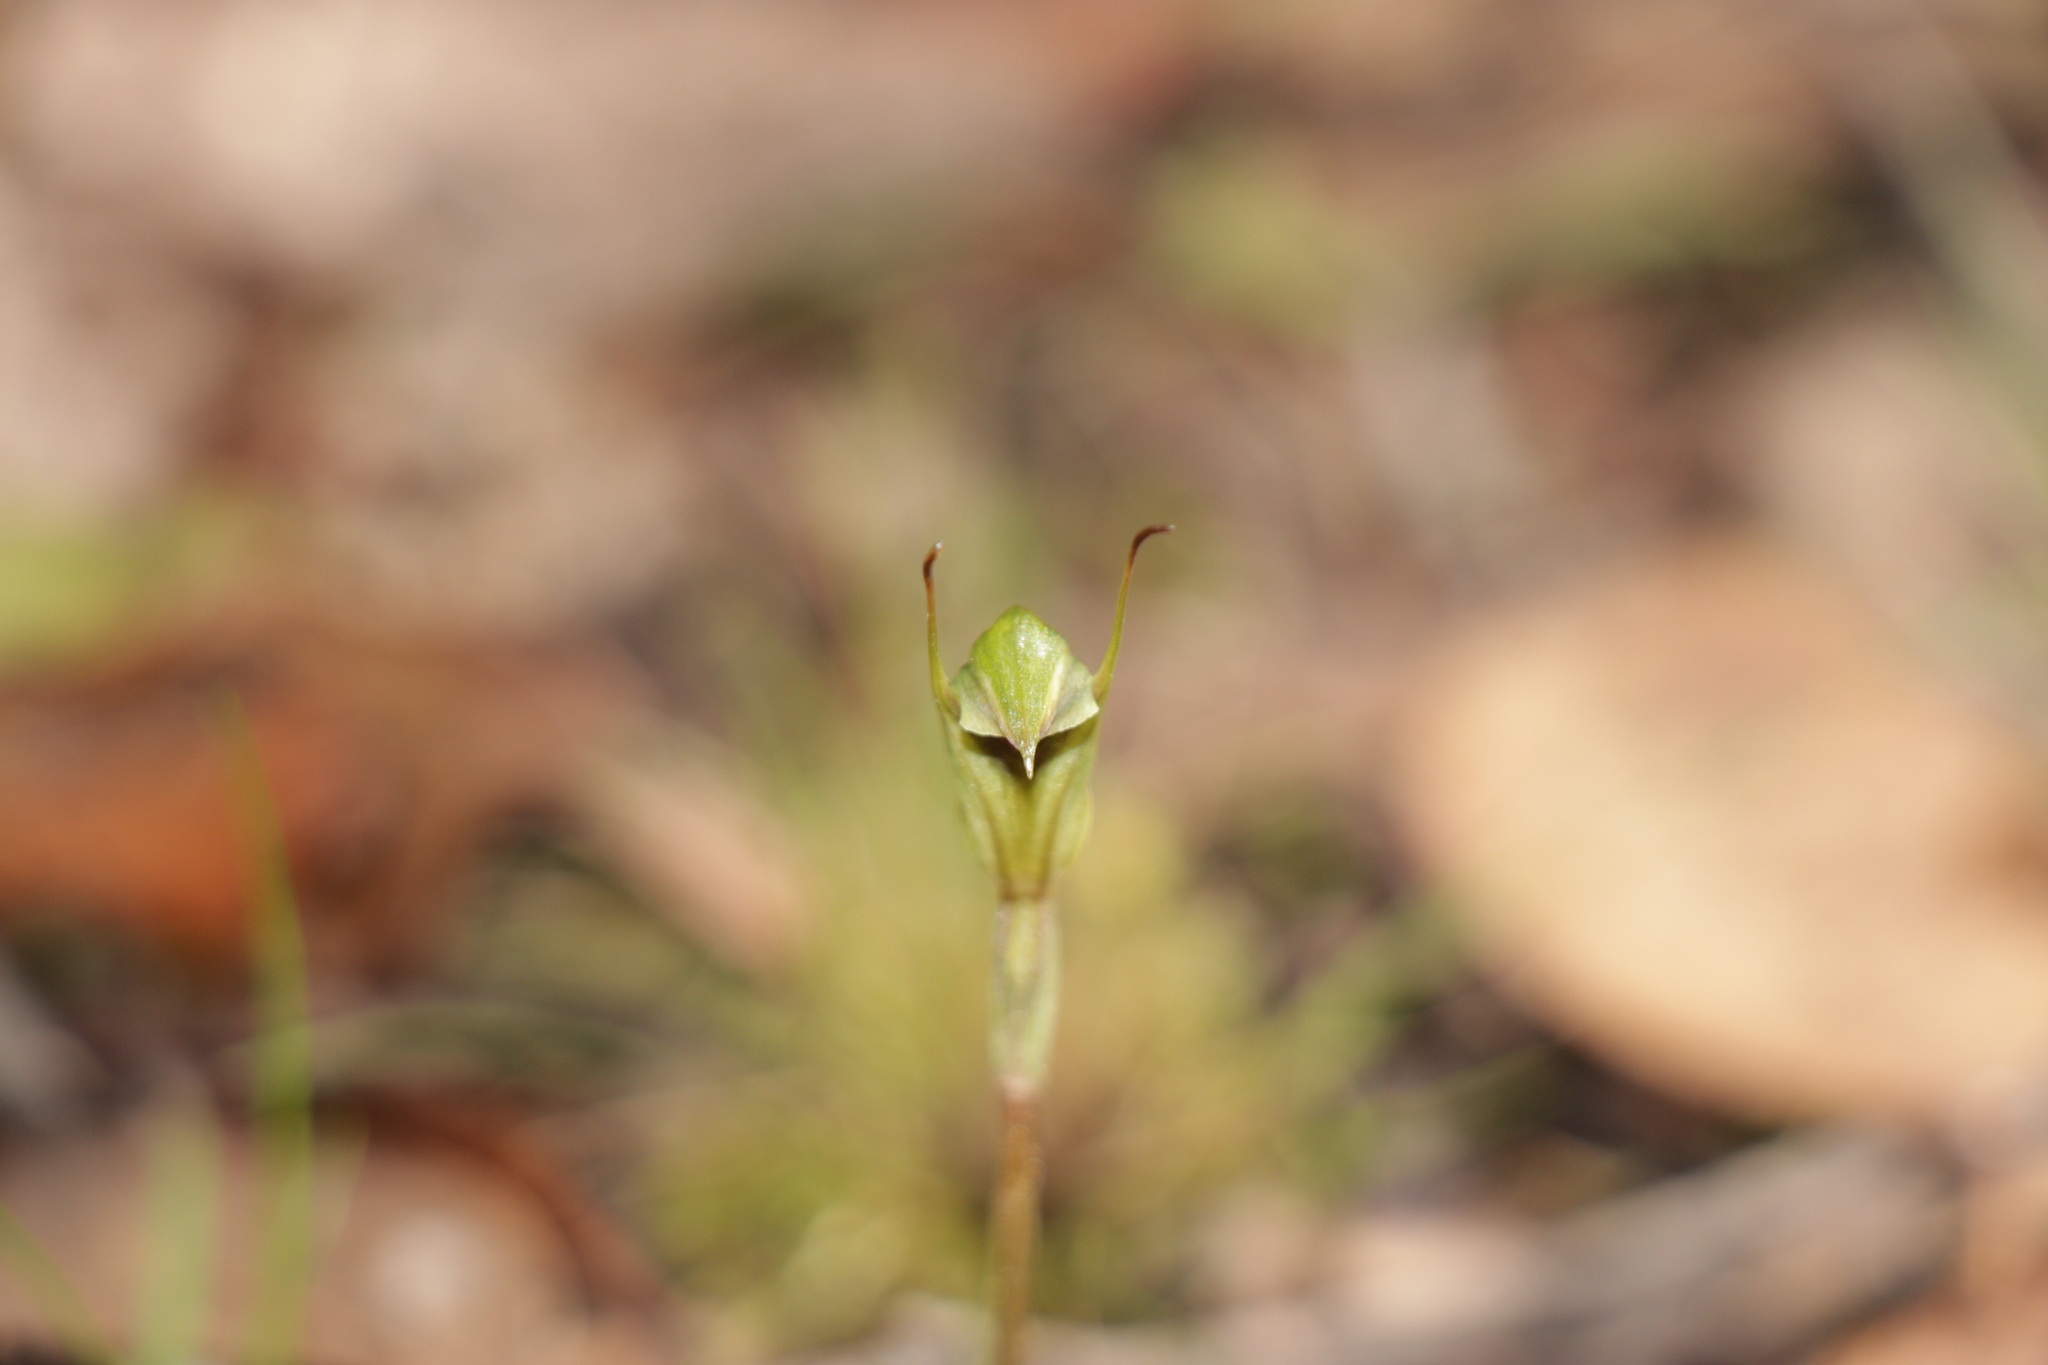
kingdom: Plantae
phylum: Tracheophyta
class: Liliopsida
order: Asparagales
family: Orchidaceae
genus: Pterostylis
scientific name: Pterostylis concinna
